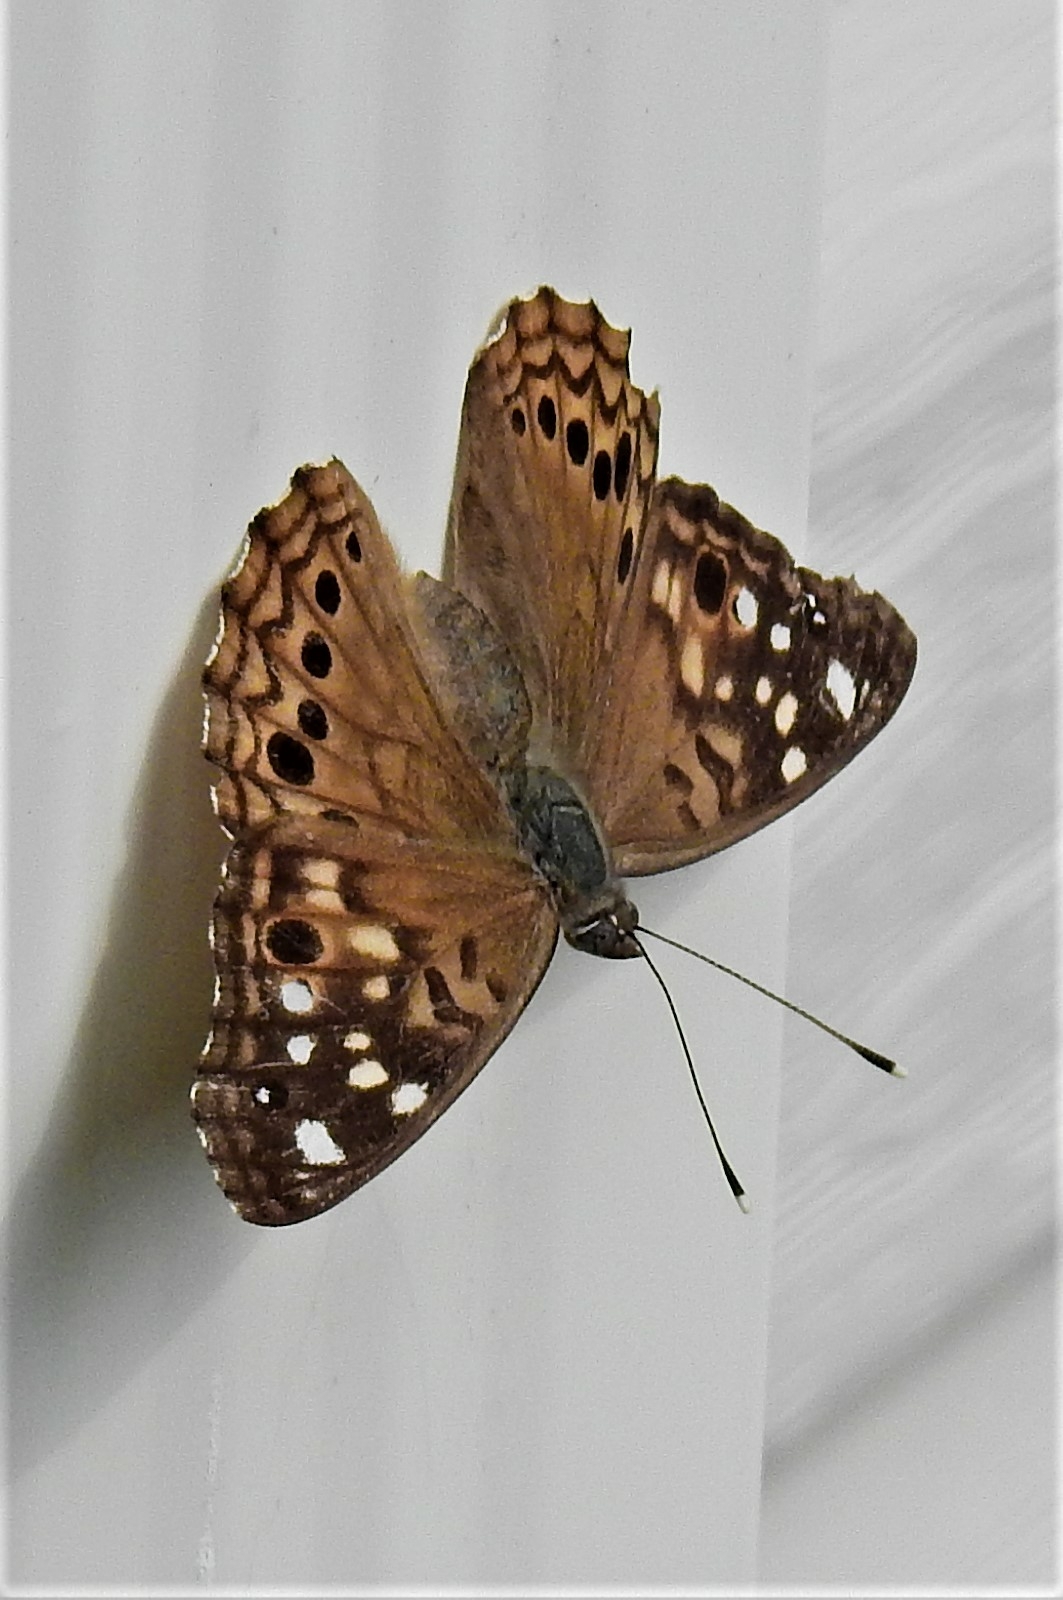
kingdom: Animalia
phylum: Arthropoda
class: Insecta
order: Lepidoptera
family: Nymphalidae
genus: Asterocampa
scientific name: Asterocampa celtis
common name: Hackberry emperor
